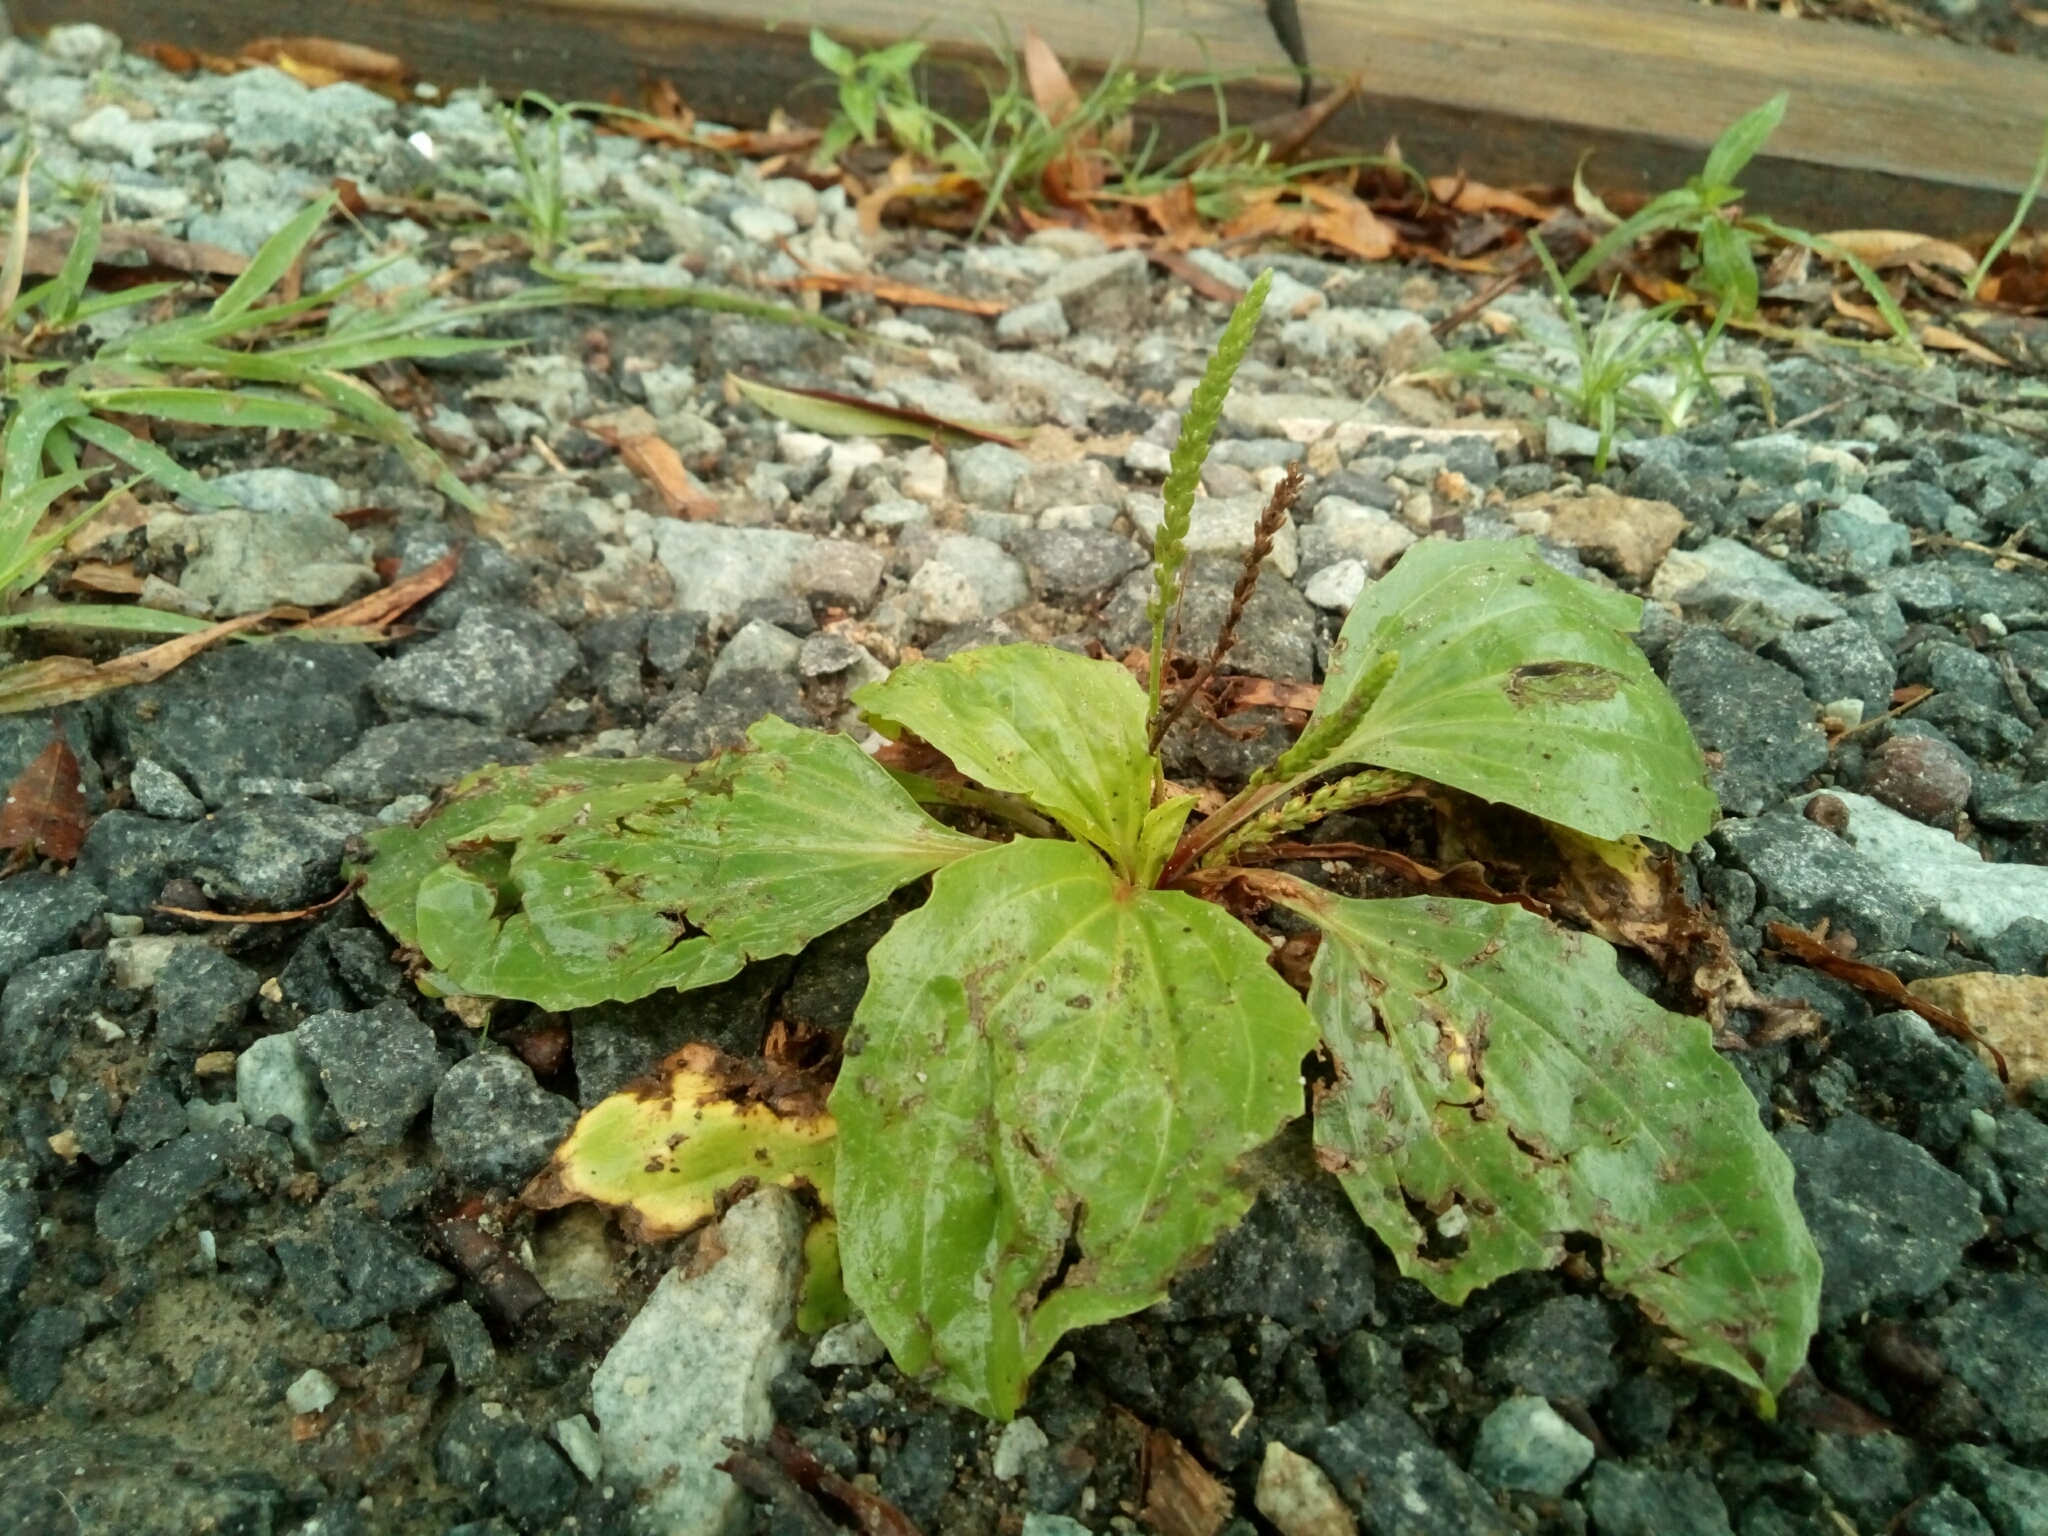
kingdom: Plantae
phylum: Tracheophyta
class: Magnoliopsida
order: Lamiales
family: Plantaginaceae
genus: Plantago
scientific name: Plantago major
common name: Common plantain
